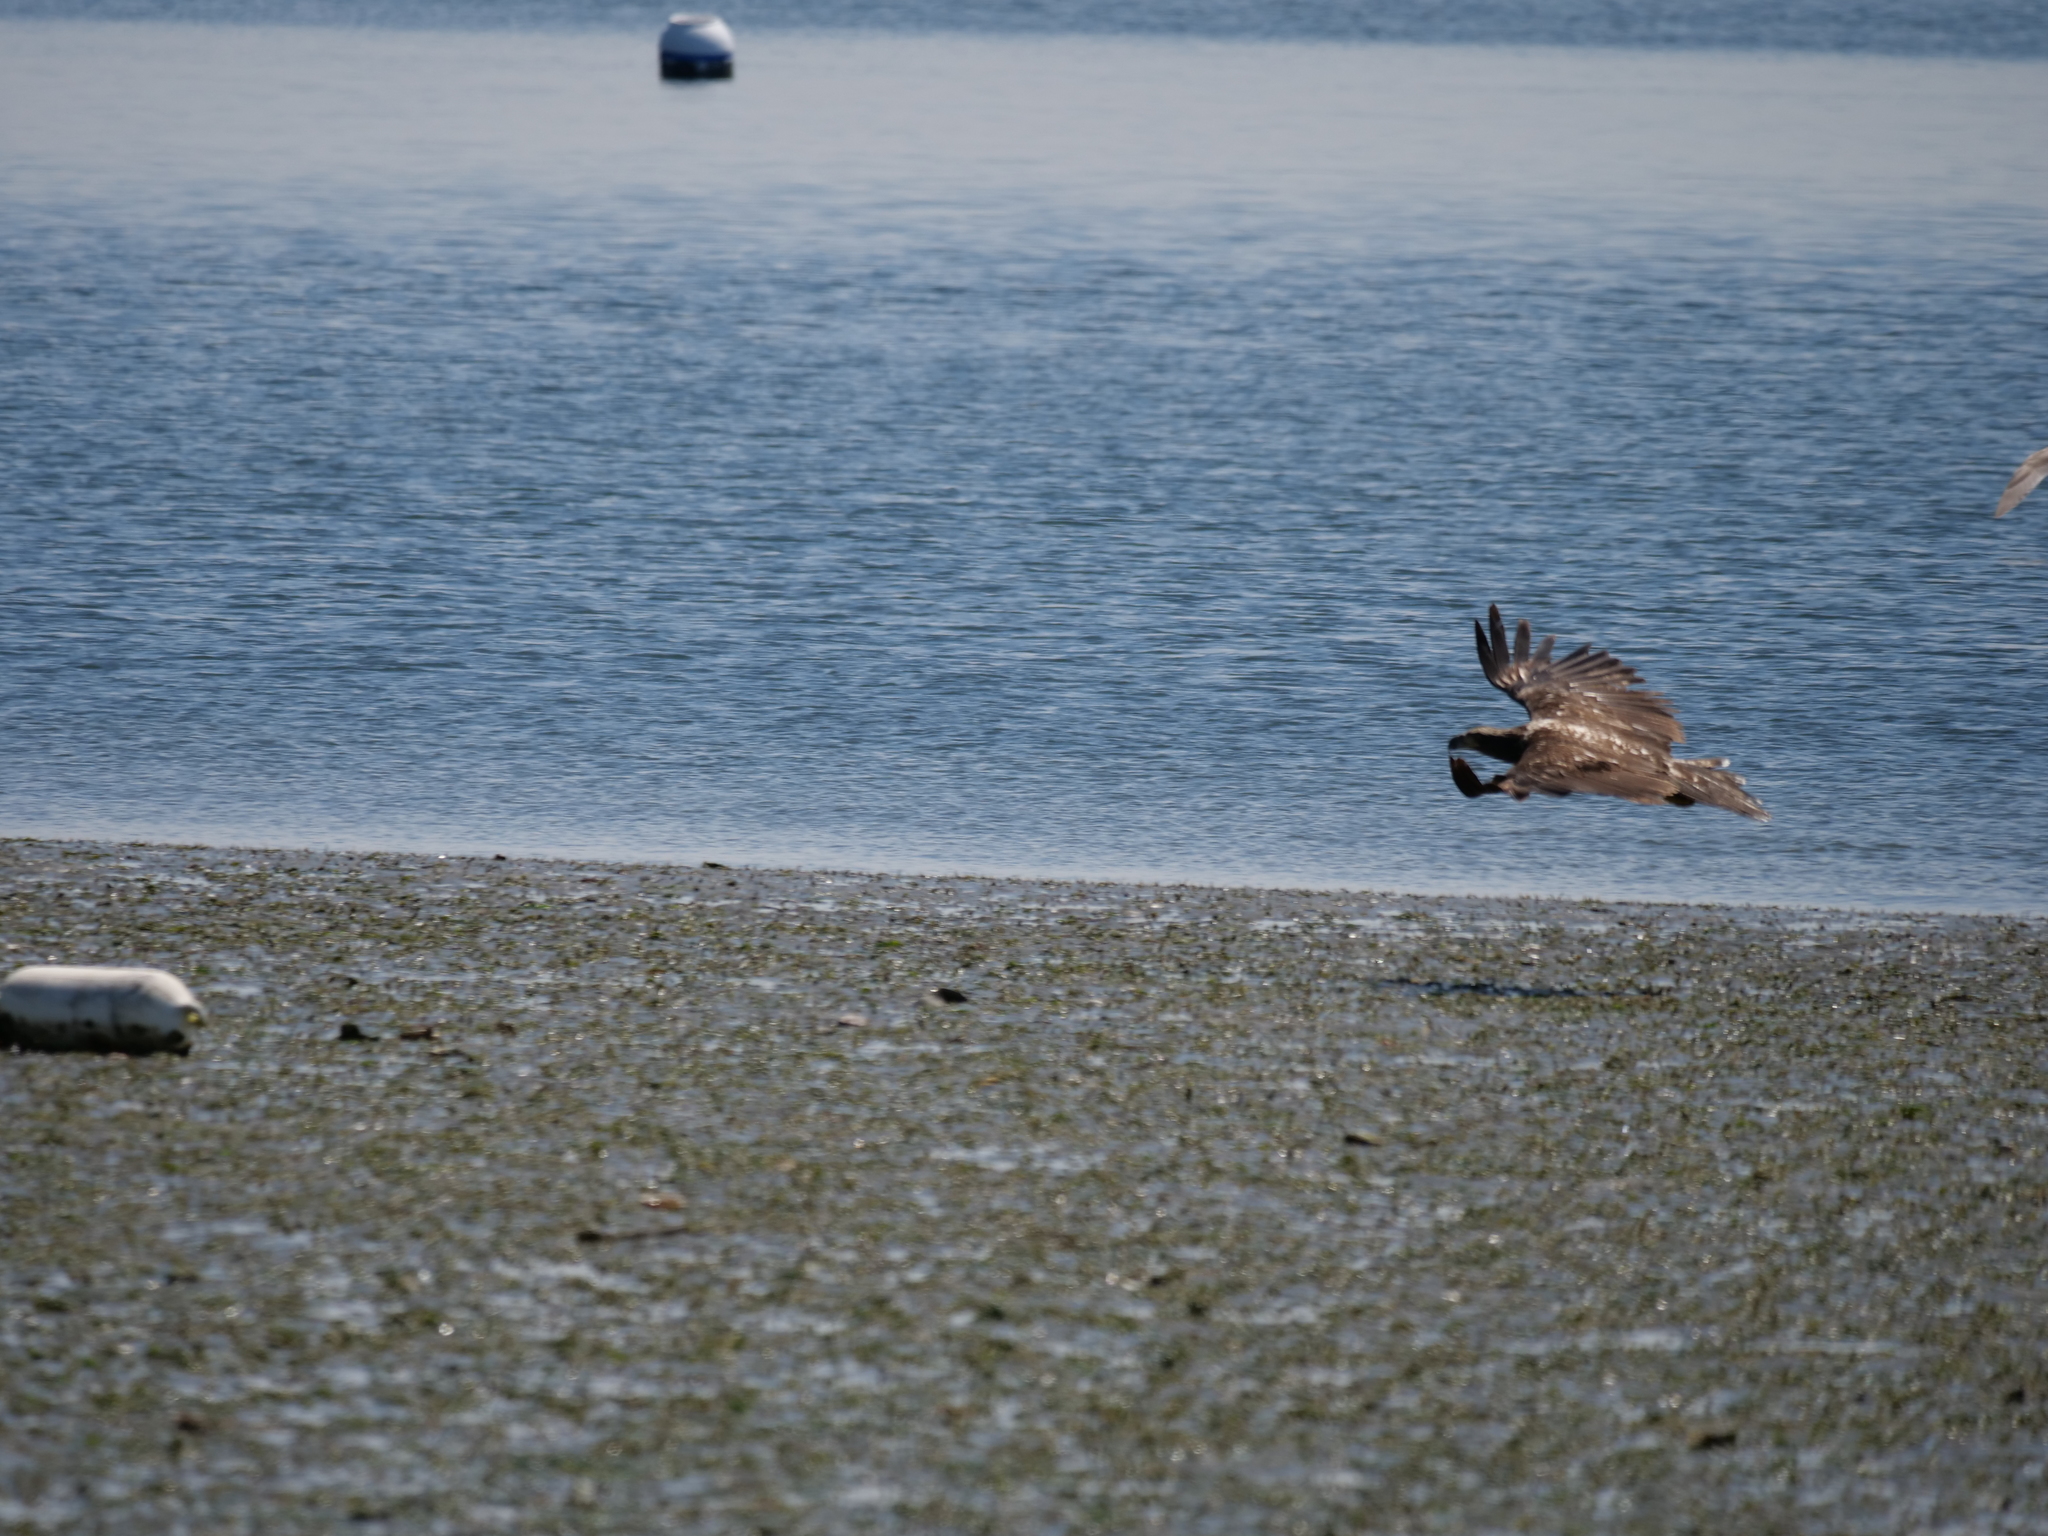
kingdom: Animalia
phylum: Chordata
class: Aves
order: Accipitriformes
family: Accipitridae
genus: Haliaeetus
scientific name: Haliaeetus leucocephalus
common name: Bald eagle
